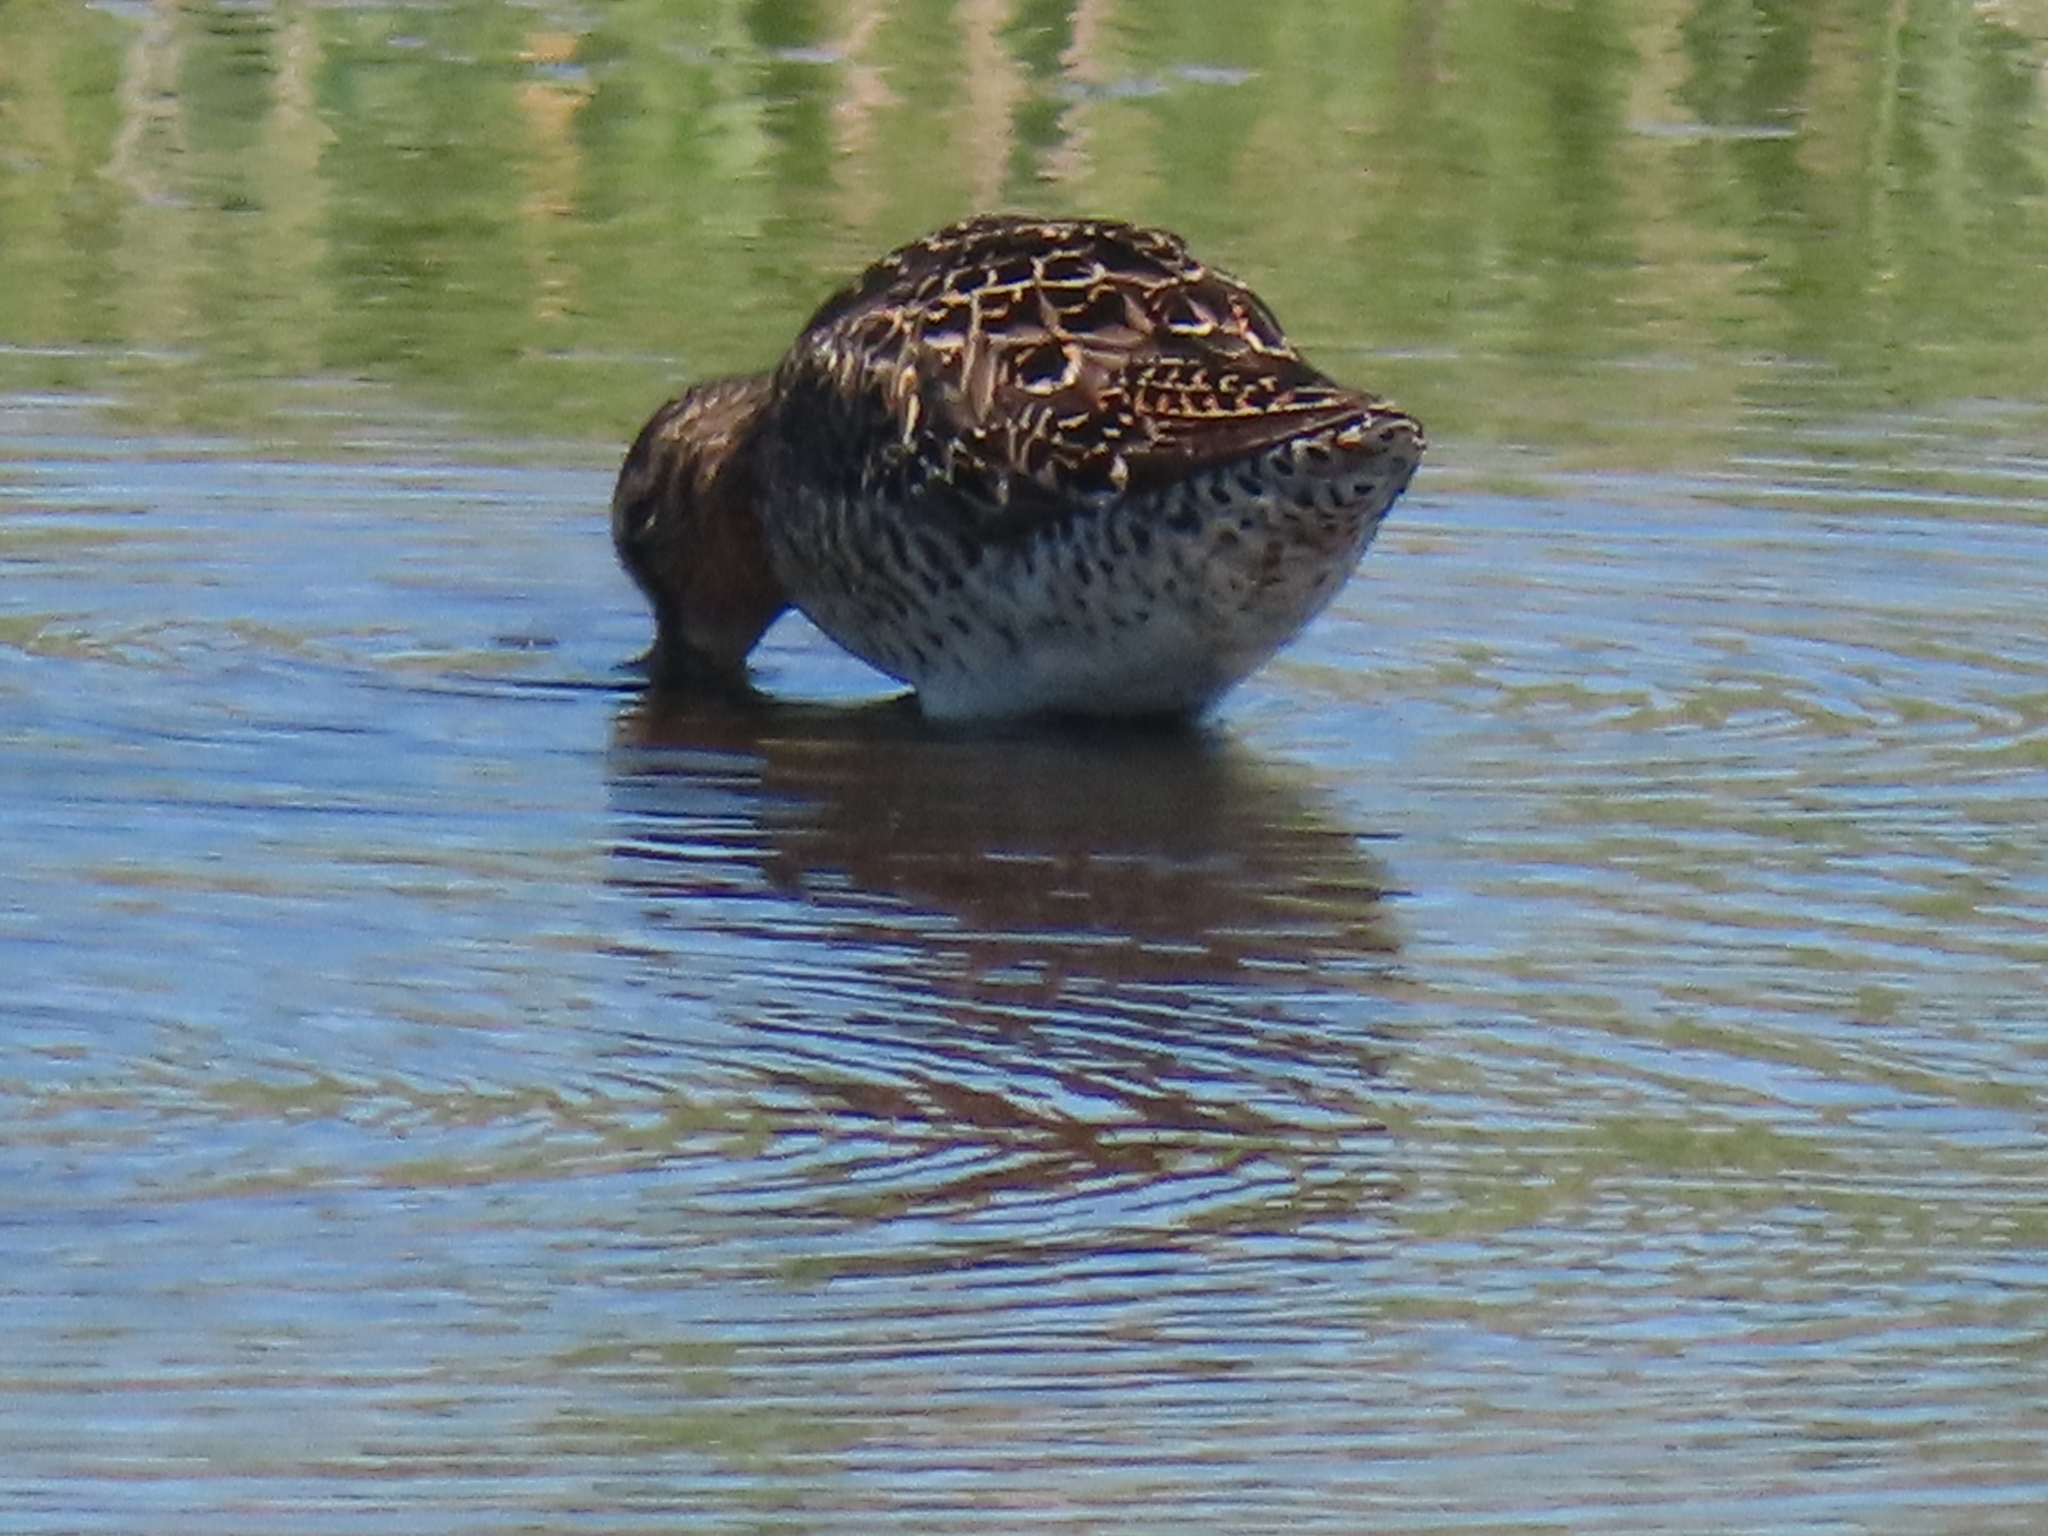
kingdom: Animalia
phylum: Chordata
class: Aves
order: Charadriiformes
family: Scolopacidae
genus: Limnodromus
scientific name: Limnodromus griseus
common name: Short-billed dowitcher
